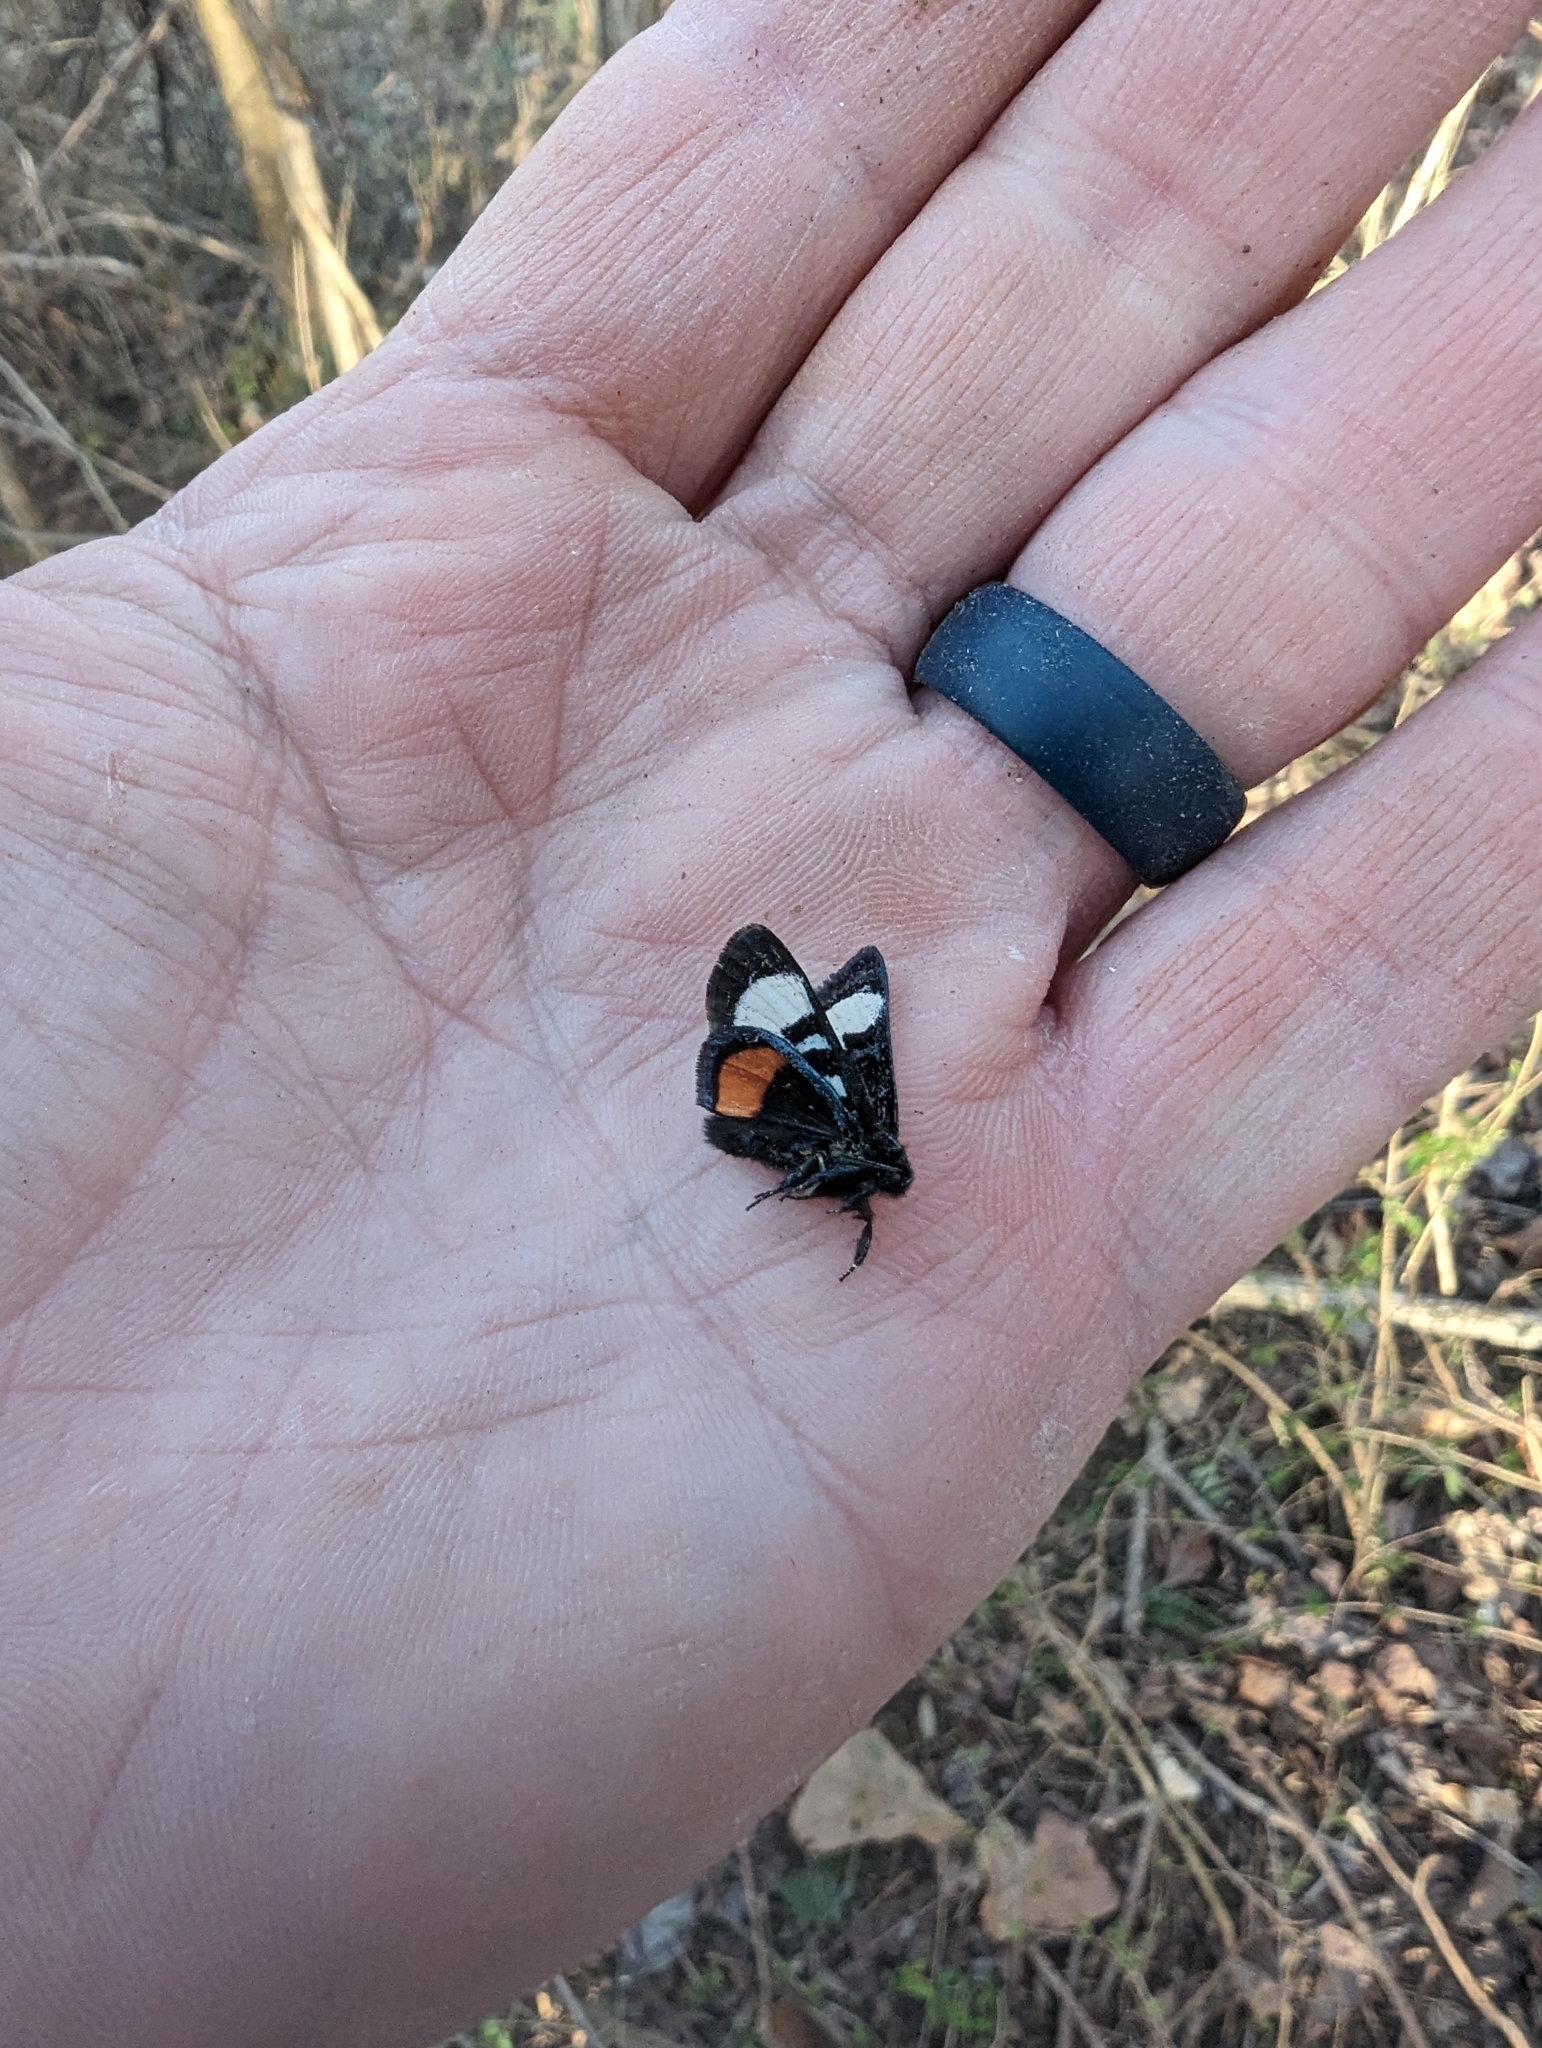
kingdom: Animalia
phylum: Arthropoda
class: Insecta
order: Lepidoptera
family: Noctuidae
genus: Psychomorpha
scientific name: Psychomorpha epimenis
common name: Grapevine epimenis moth
